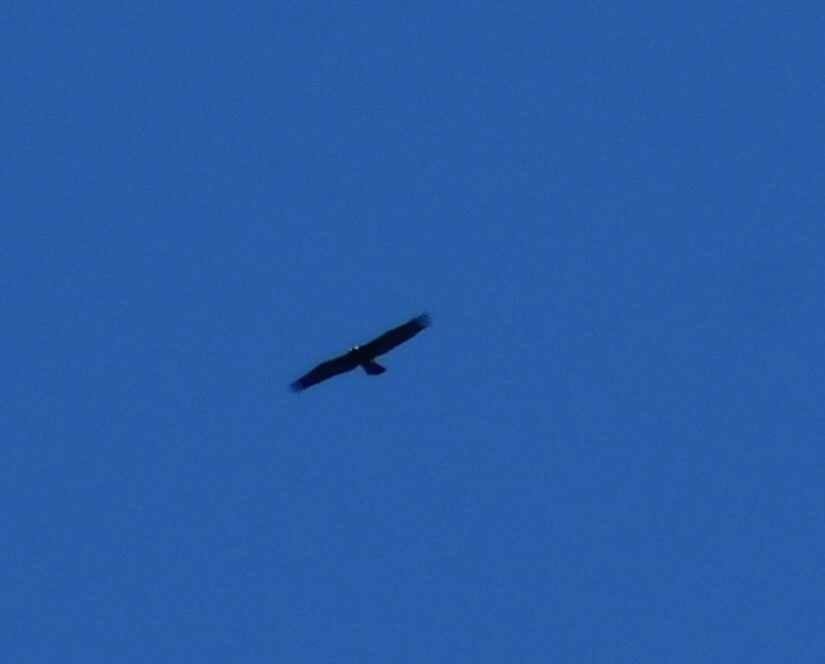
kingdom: Animalia
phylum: Chordata
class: Aves
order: Accipitriformes
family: Accipitridae
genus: Aquila
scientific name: Aquila chrysaetos
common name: Golden eagle
